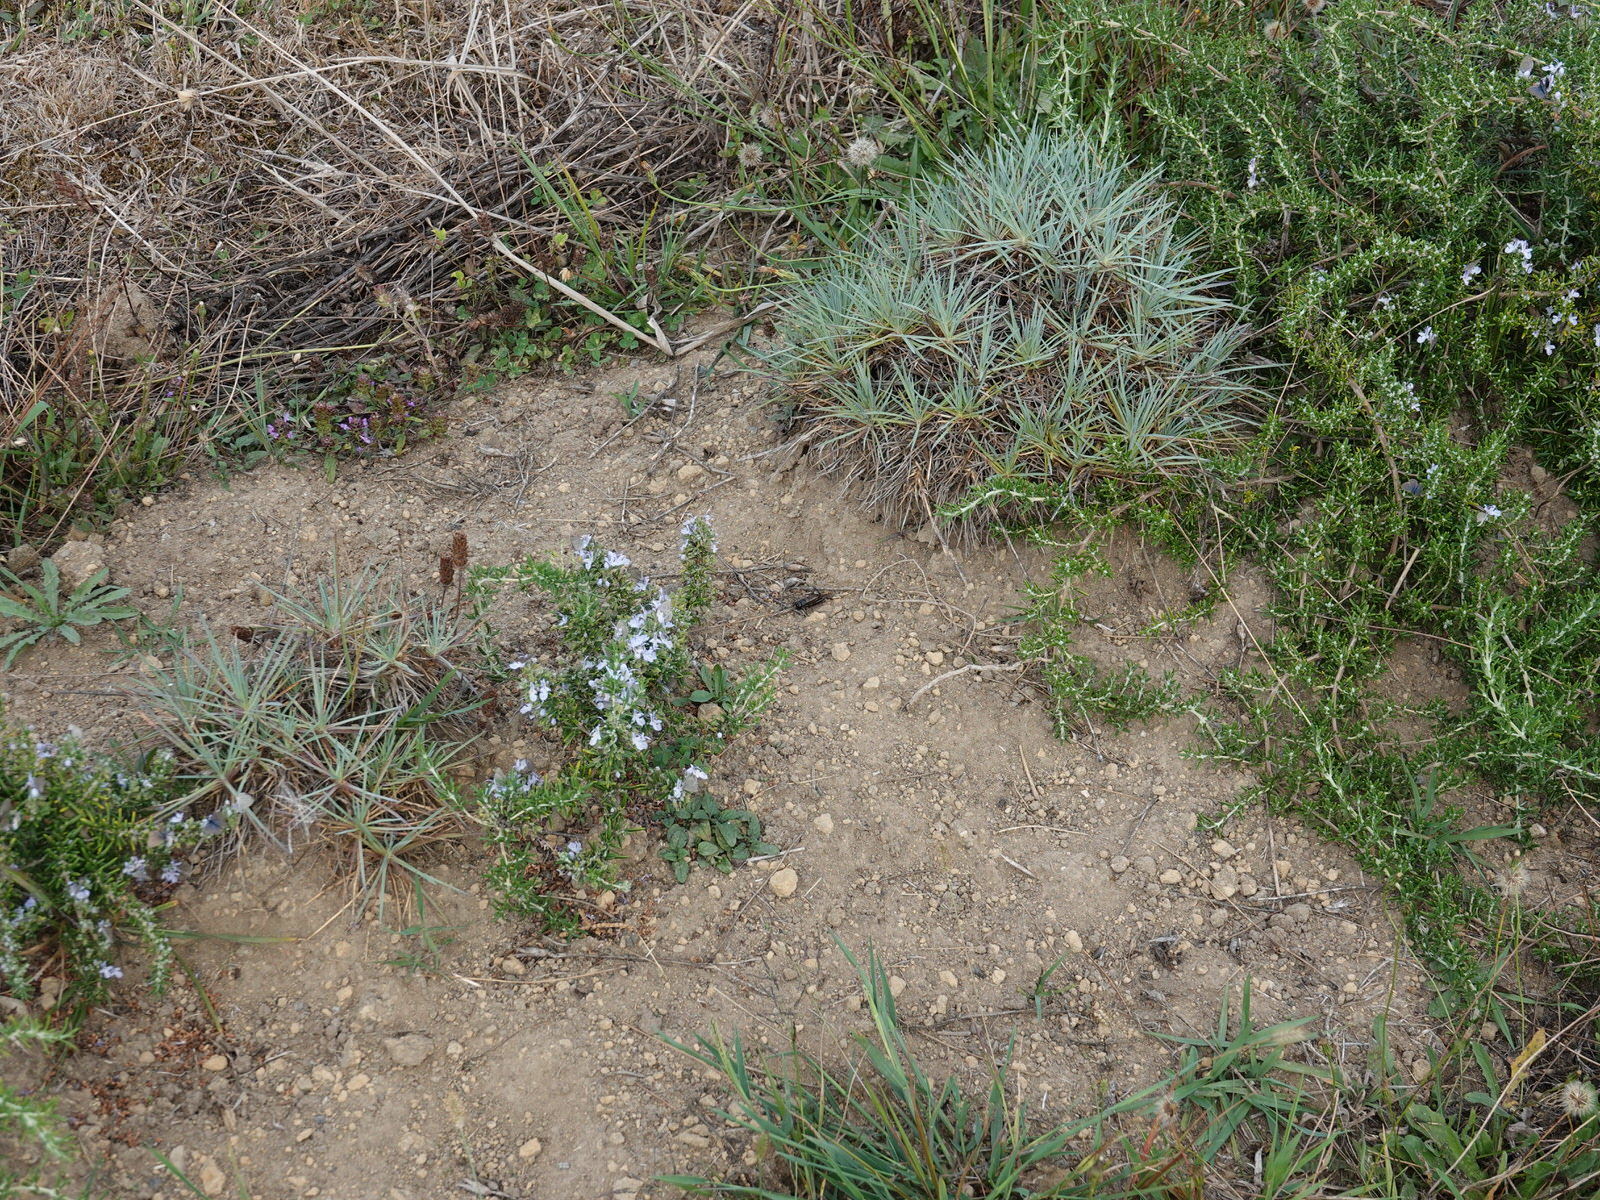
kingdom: Animalia
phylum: Arthropoda
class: Insecta
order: Orthoptera
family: Gryllidae
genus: Teleogryllus
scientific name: Teleogryllus commodus
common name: Black field cricket
